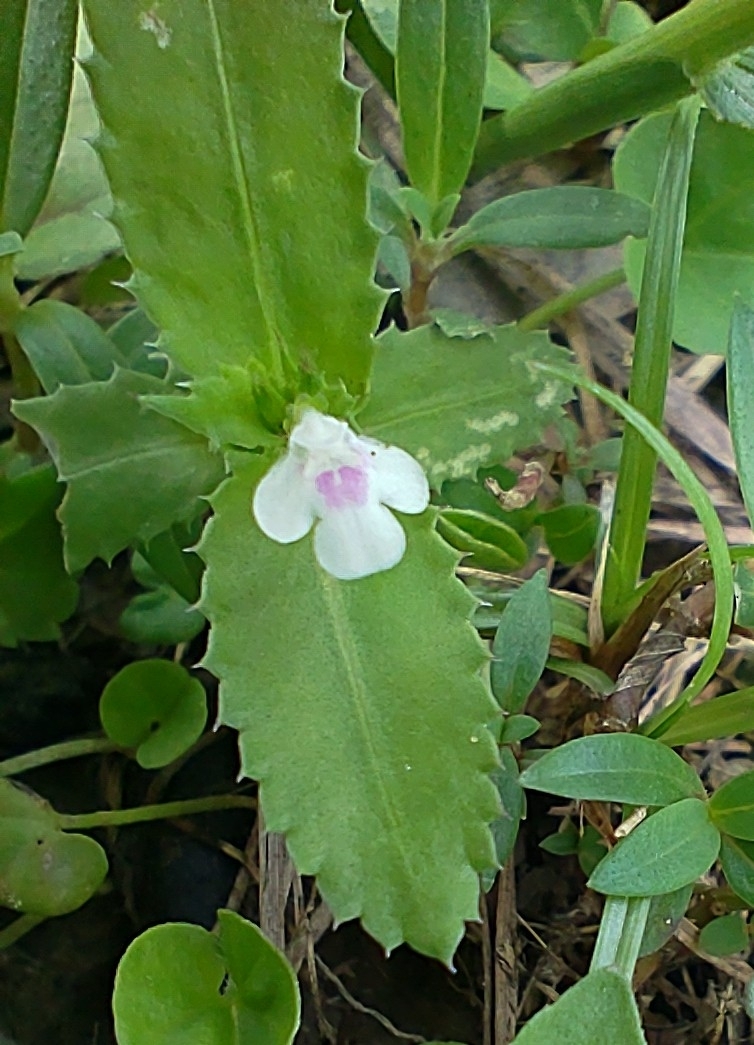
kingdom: Plantae
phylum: Tracheophyta
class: Magnoliopsida
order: Lamiales
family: Linderniaceae
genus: Bonnaya
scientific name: Bonnaya ciliata
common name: Hairy slitwort
